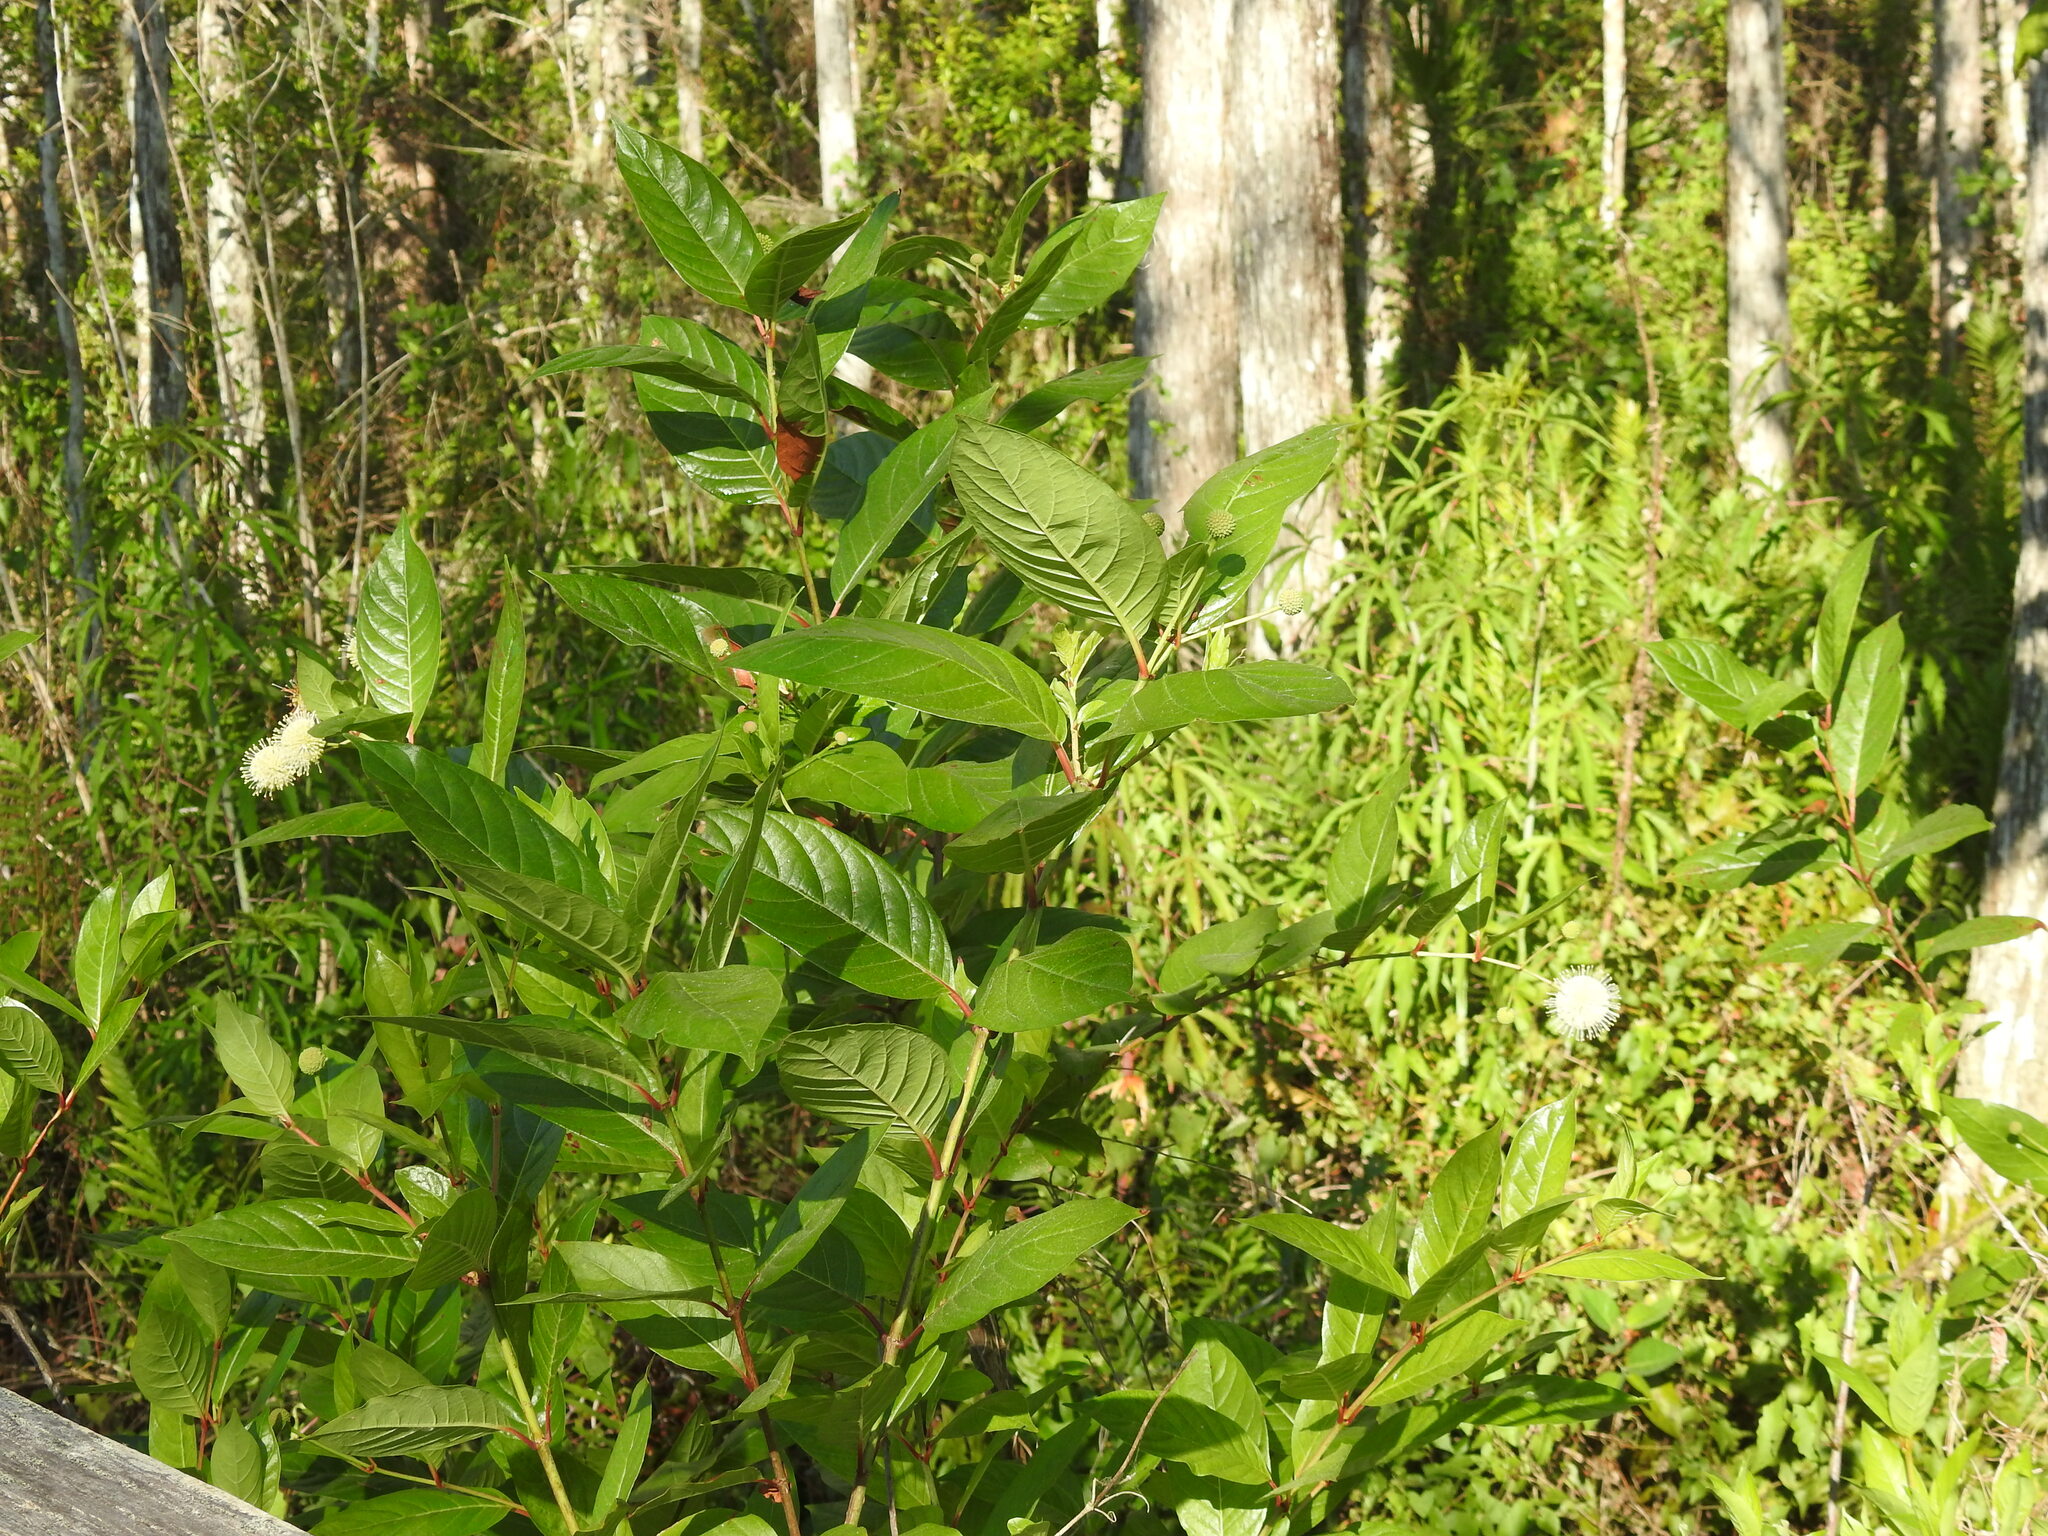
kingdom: Plantae
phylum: Tracheophyta
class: Magnoliopsida
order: Gentianales
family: Rubiaceae
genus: Cephalanthus
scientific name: Cephalanthus occidentalis
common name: Button-willow
